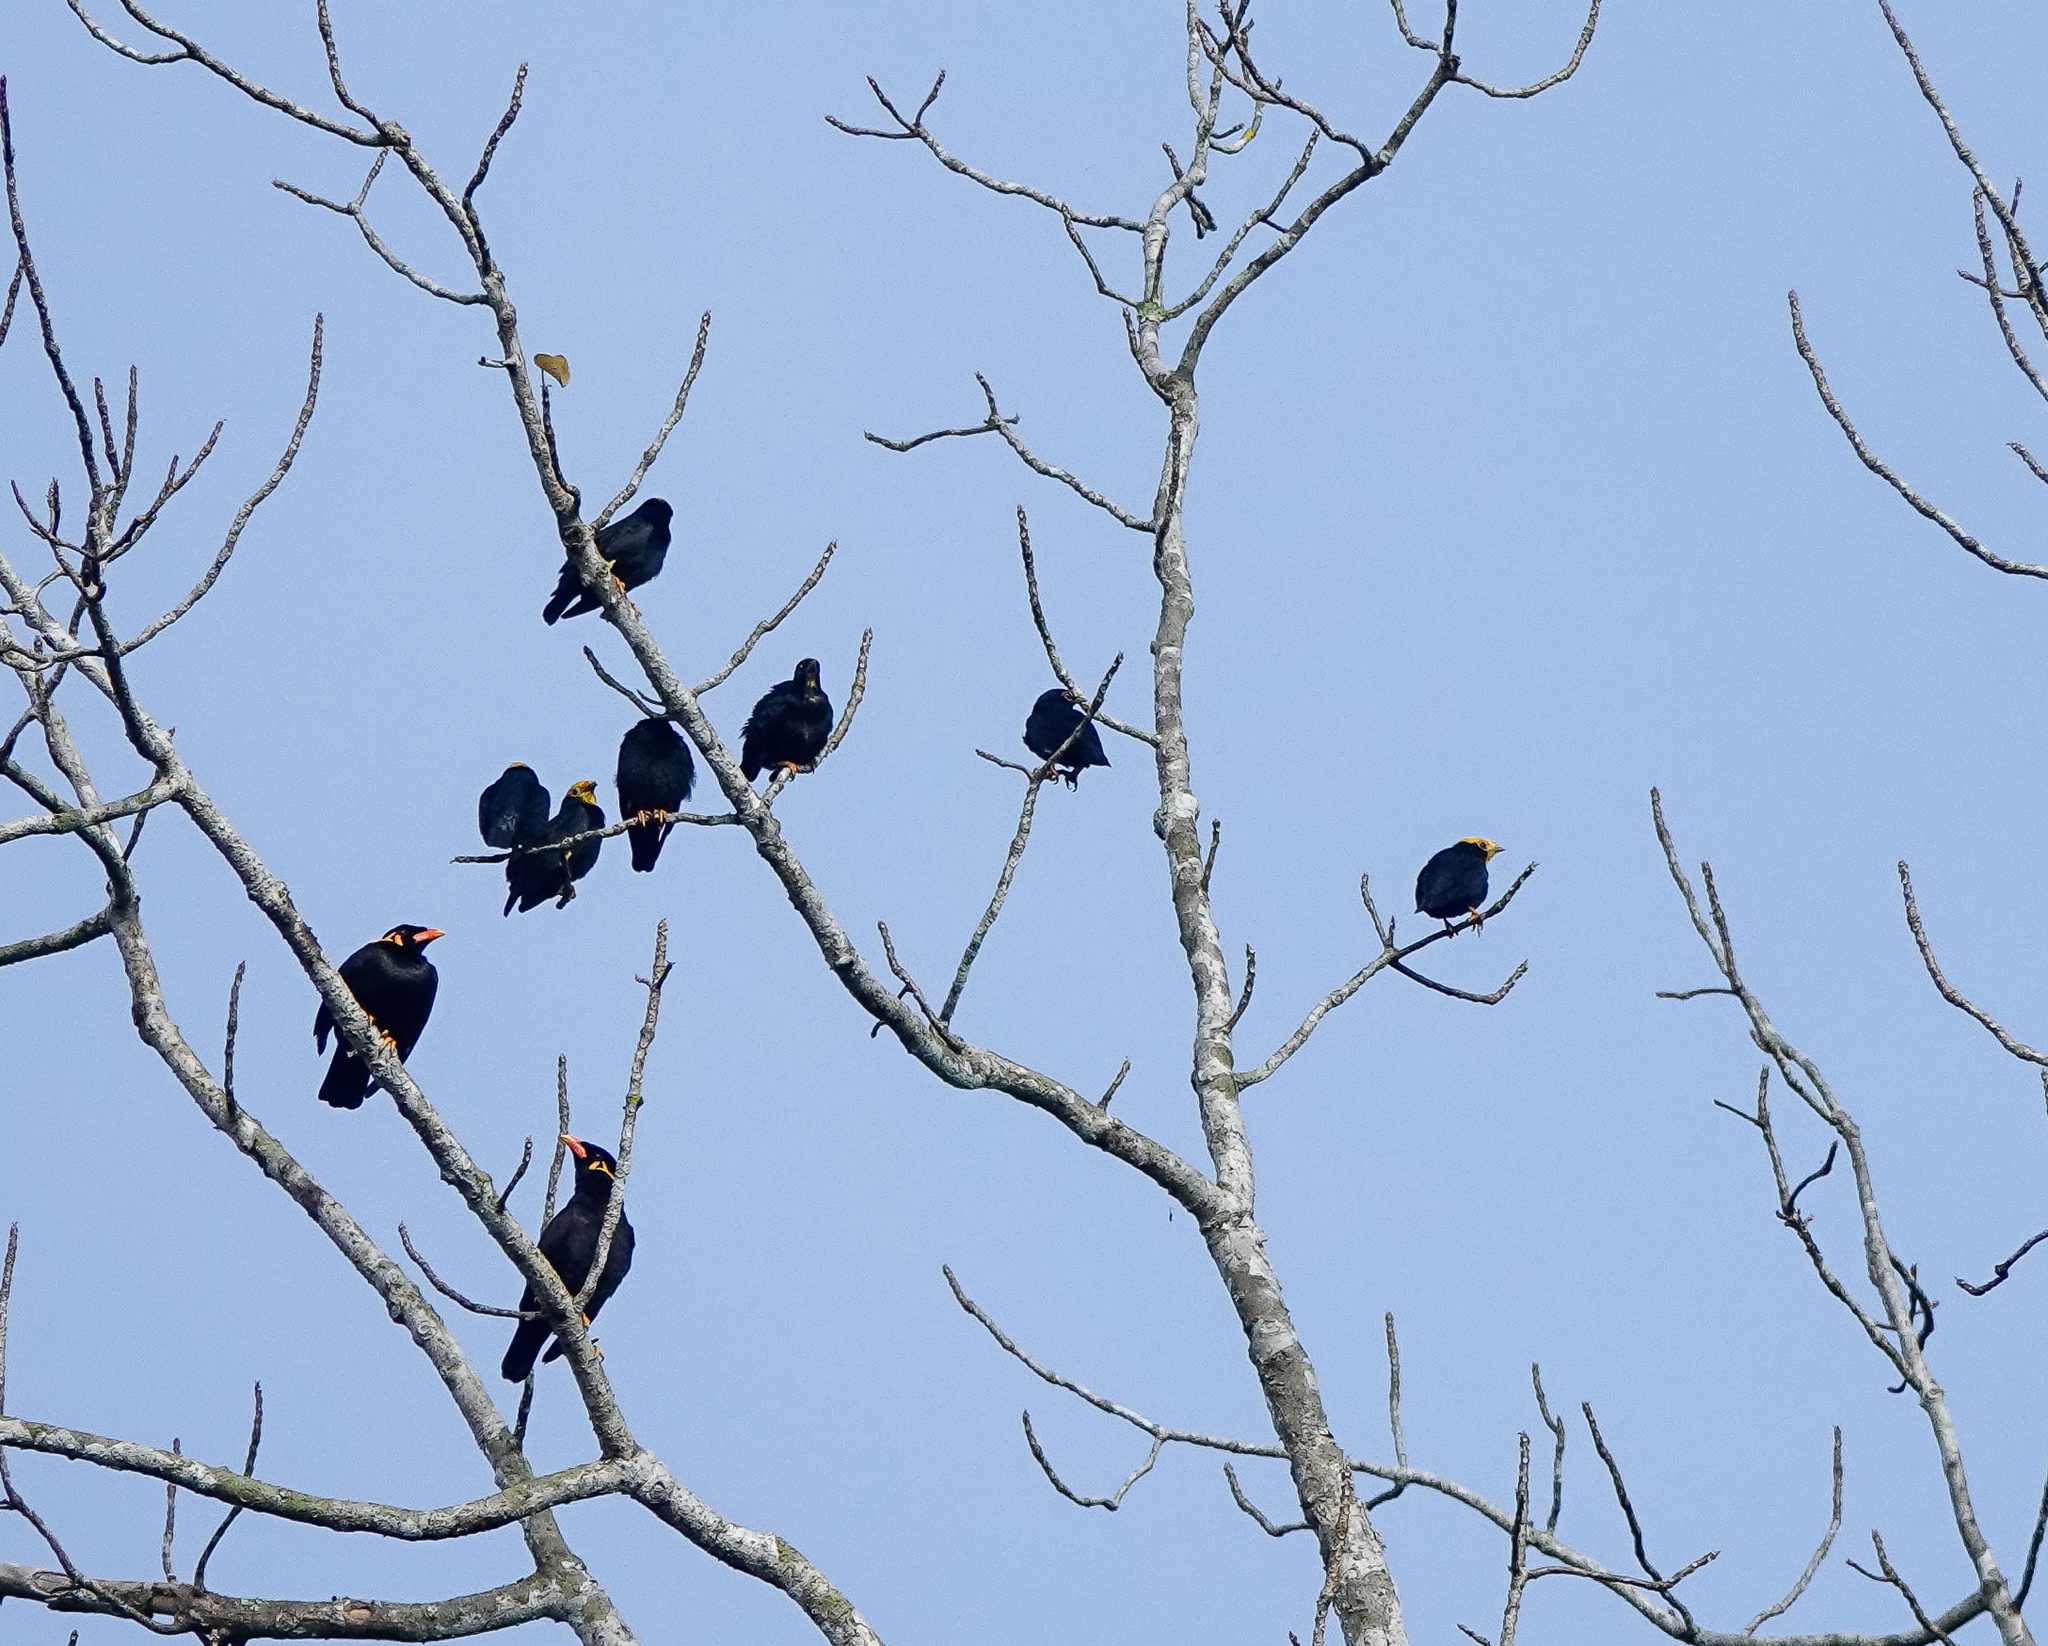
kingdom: Animalia
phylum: Chordata
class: Aves
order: Passeriformes
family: Sturnidae
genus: Ampeliceps
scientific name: Ampeliceps coronatus
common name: Golden-crested myna
